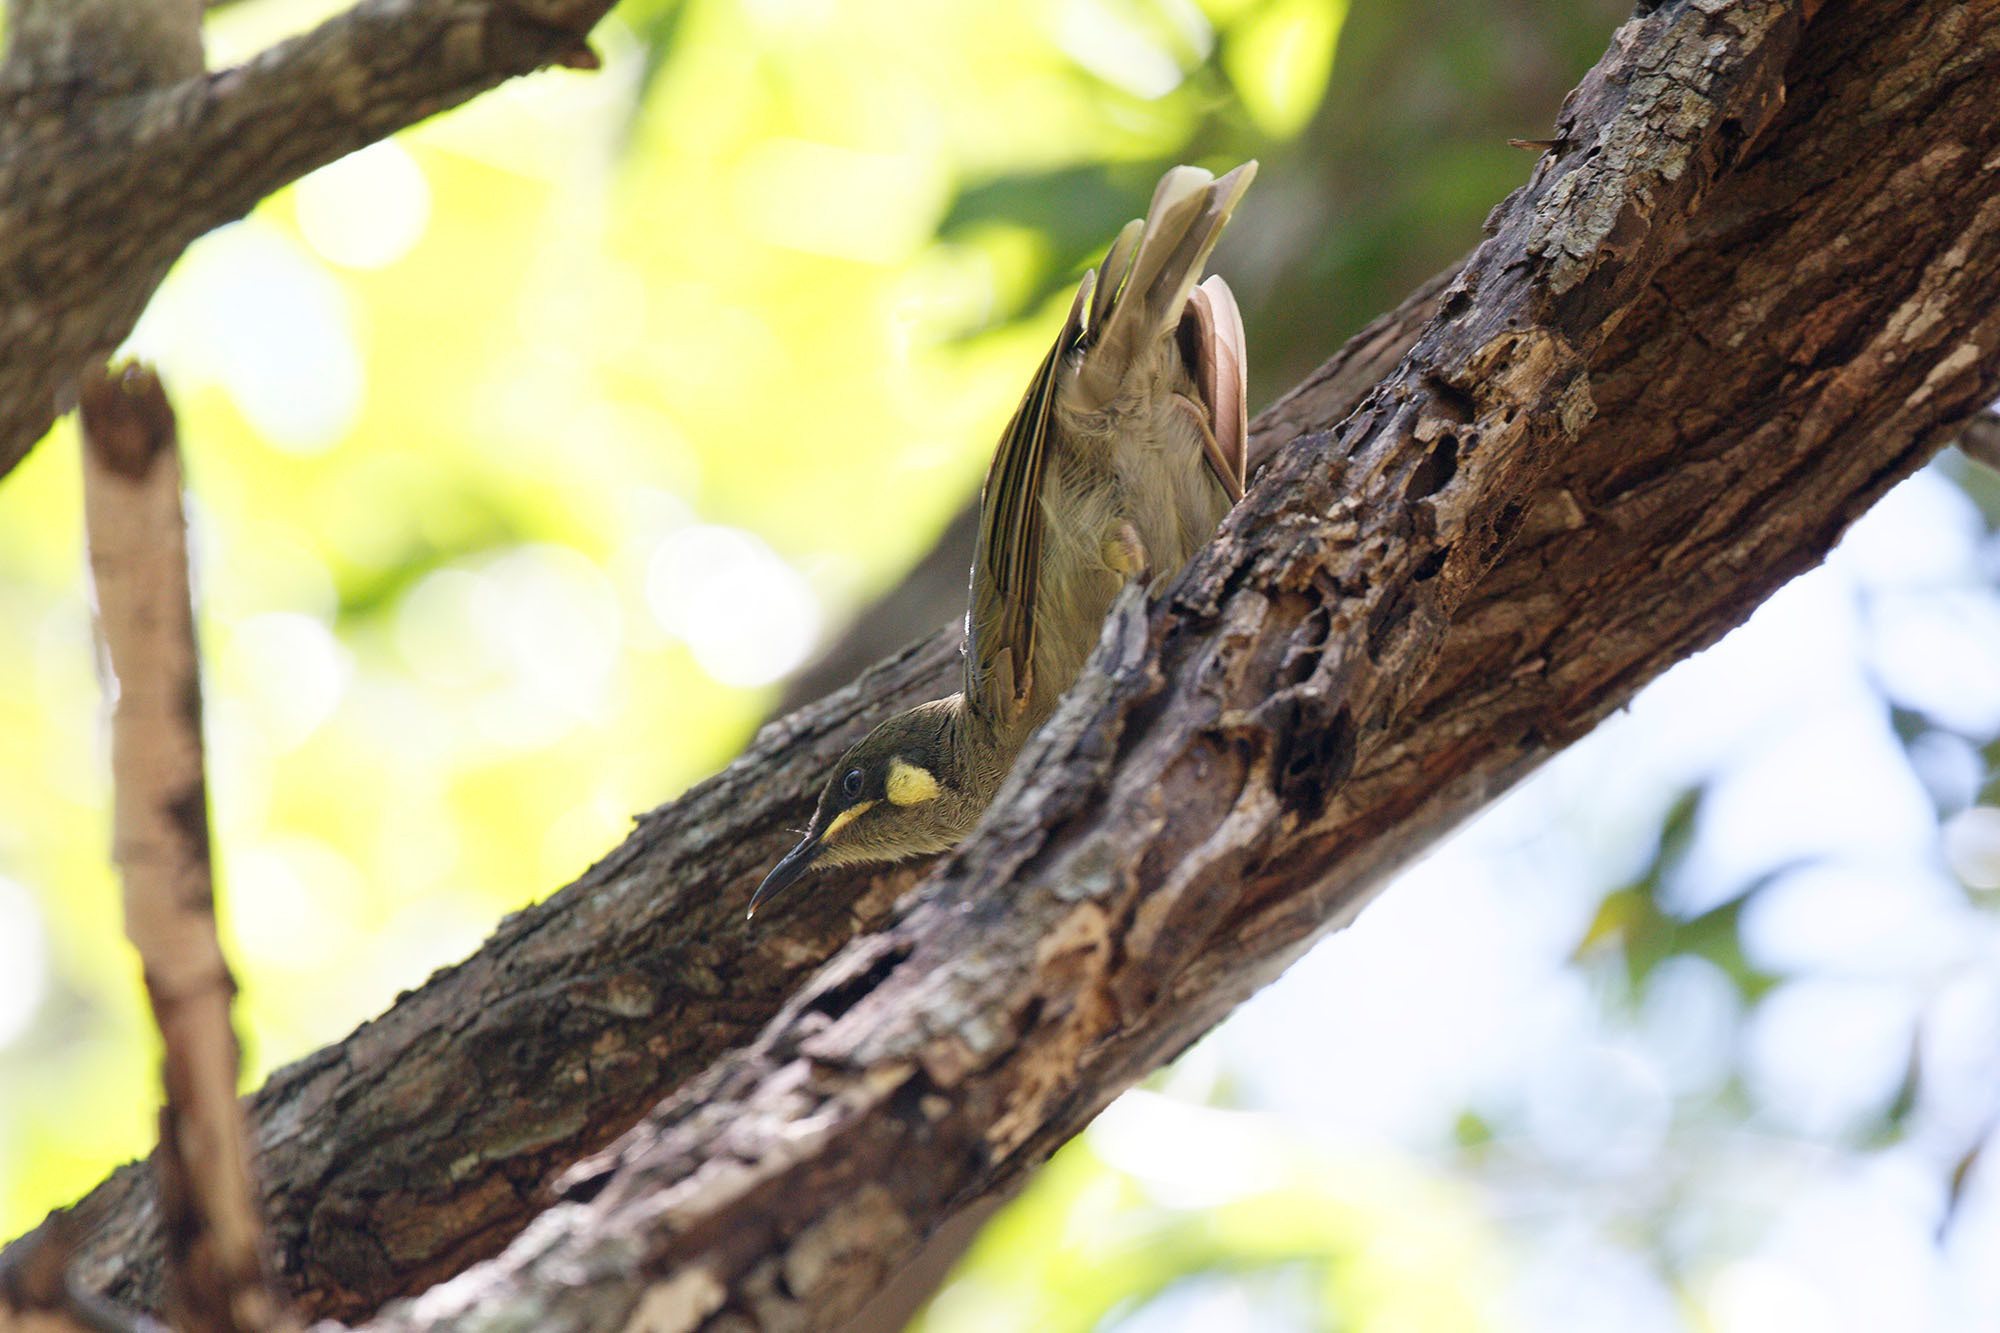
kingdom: Animalia
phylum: Chordata
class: Aves
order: Passeriformes
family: Meliphagidae
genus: Meliphaga
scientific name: Meliphaga notata
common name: Yellow-spotted honeyeater
